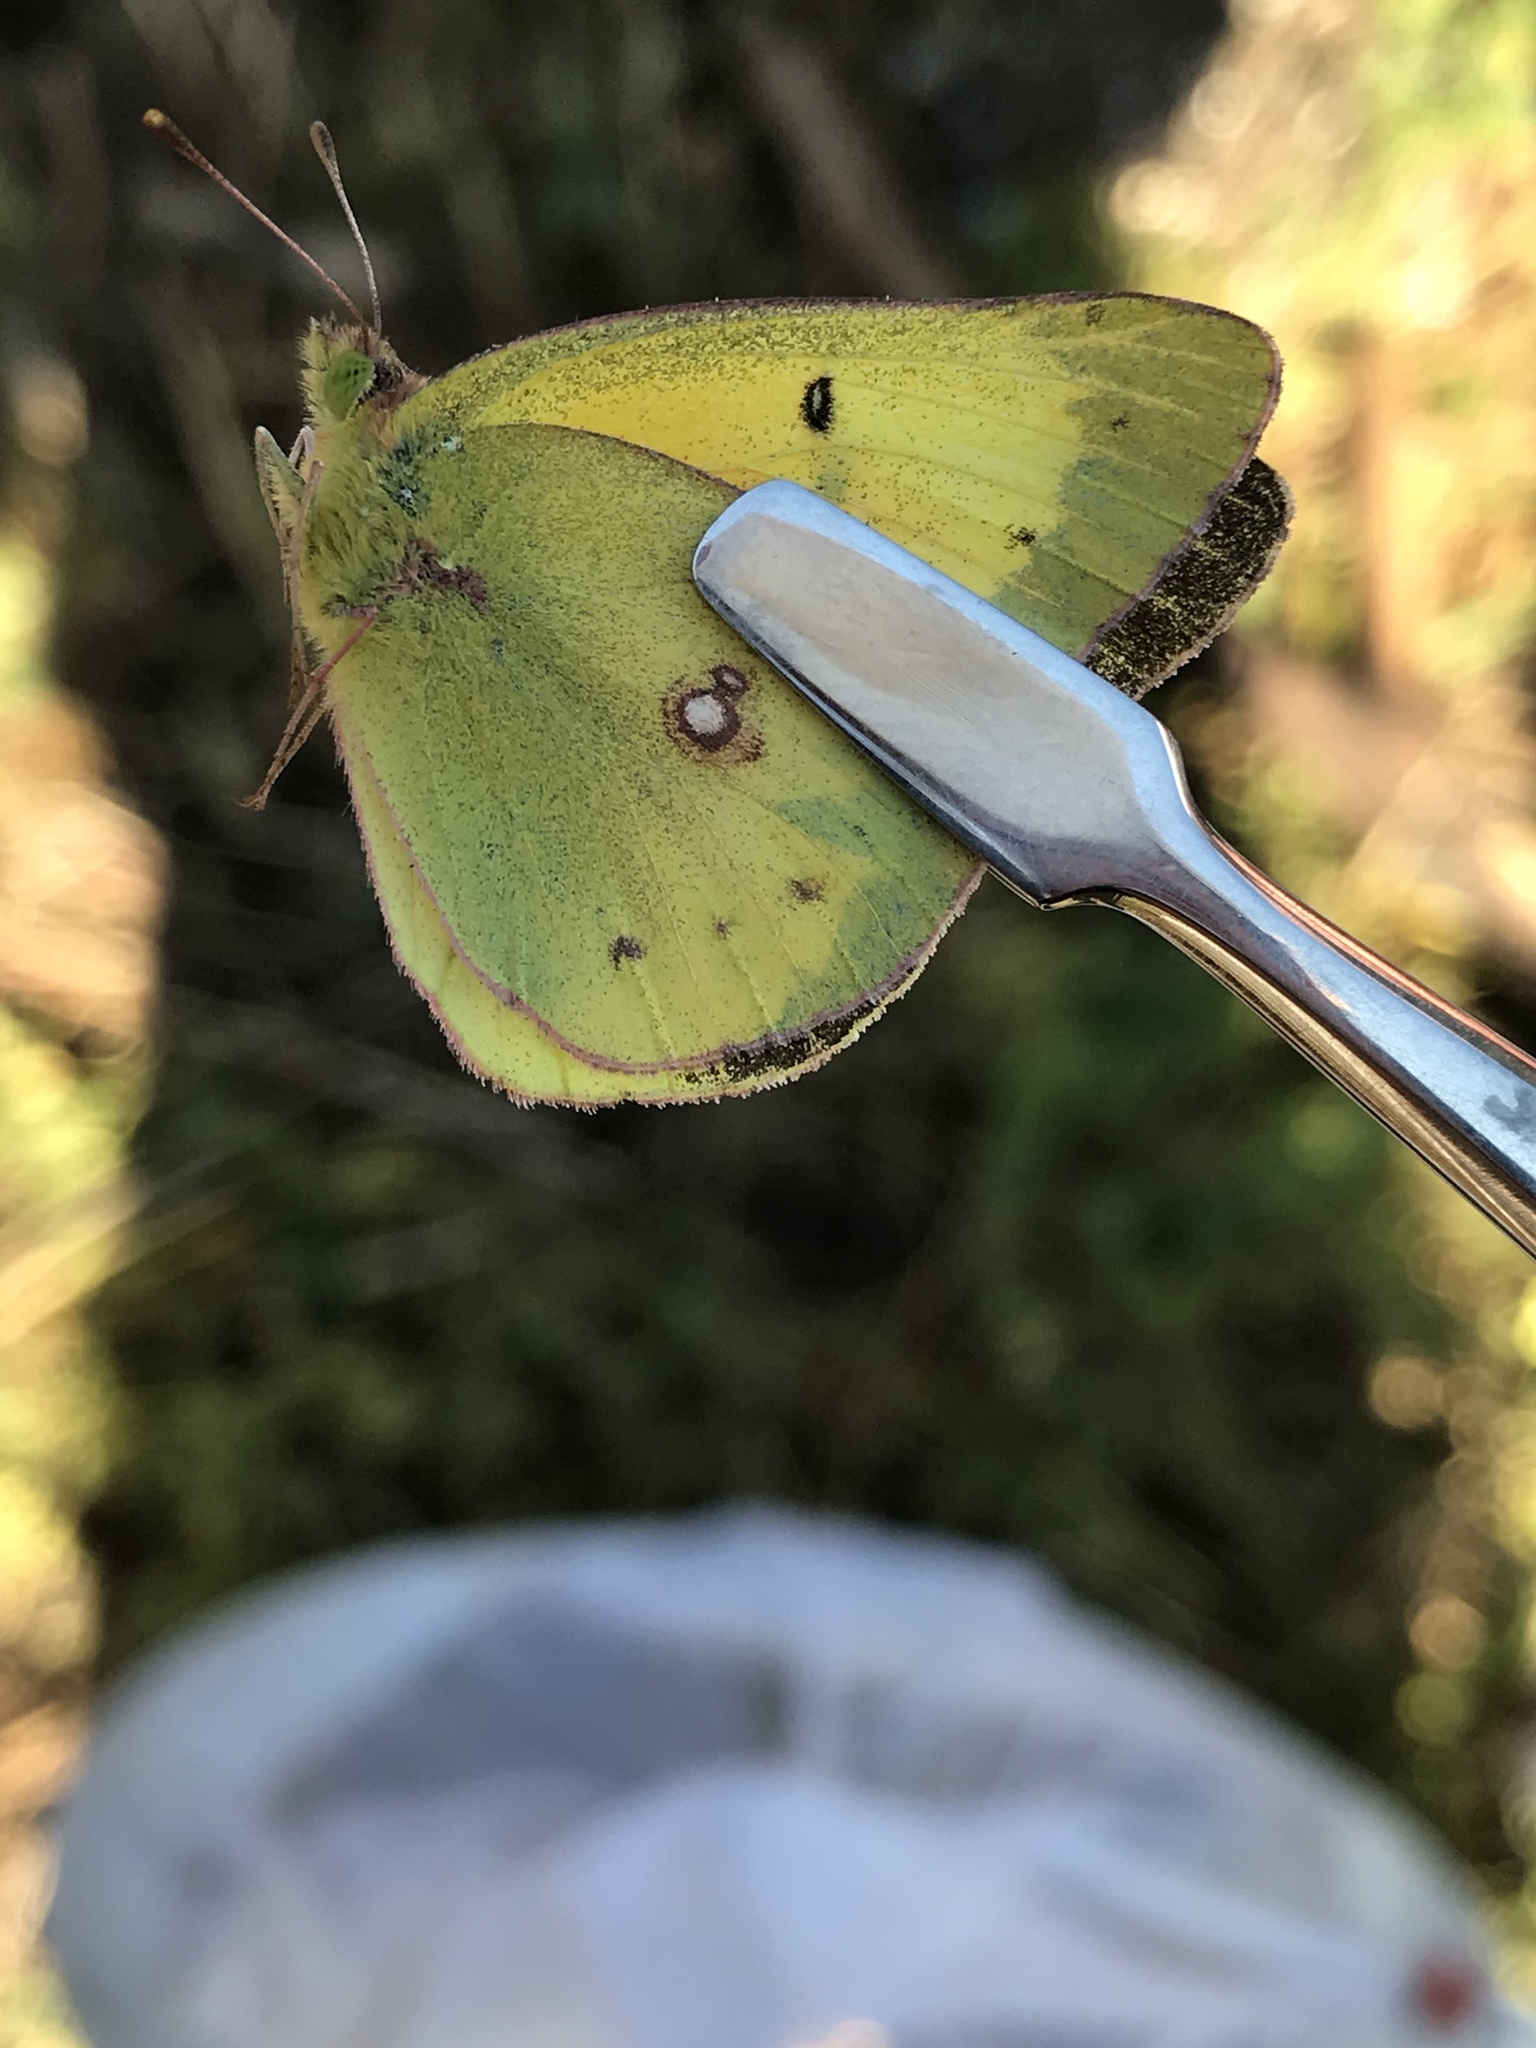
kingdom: Animalia
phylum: Arthropoda
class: Insecta
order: Lepidoptera
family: Pieridae
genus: Colias
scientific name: Colias eurytheme
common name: Alfalfa butterfly
